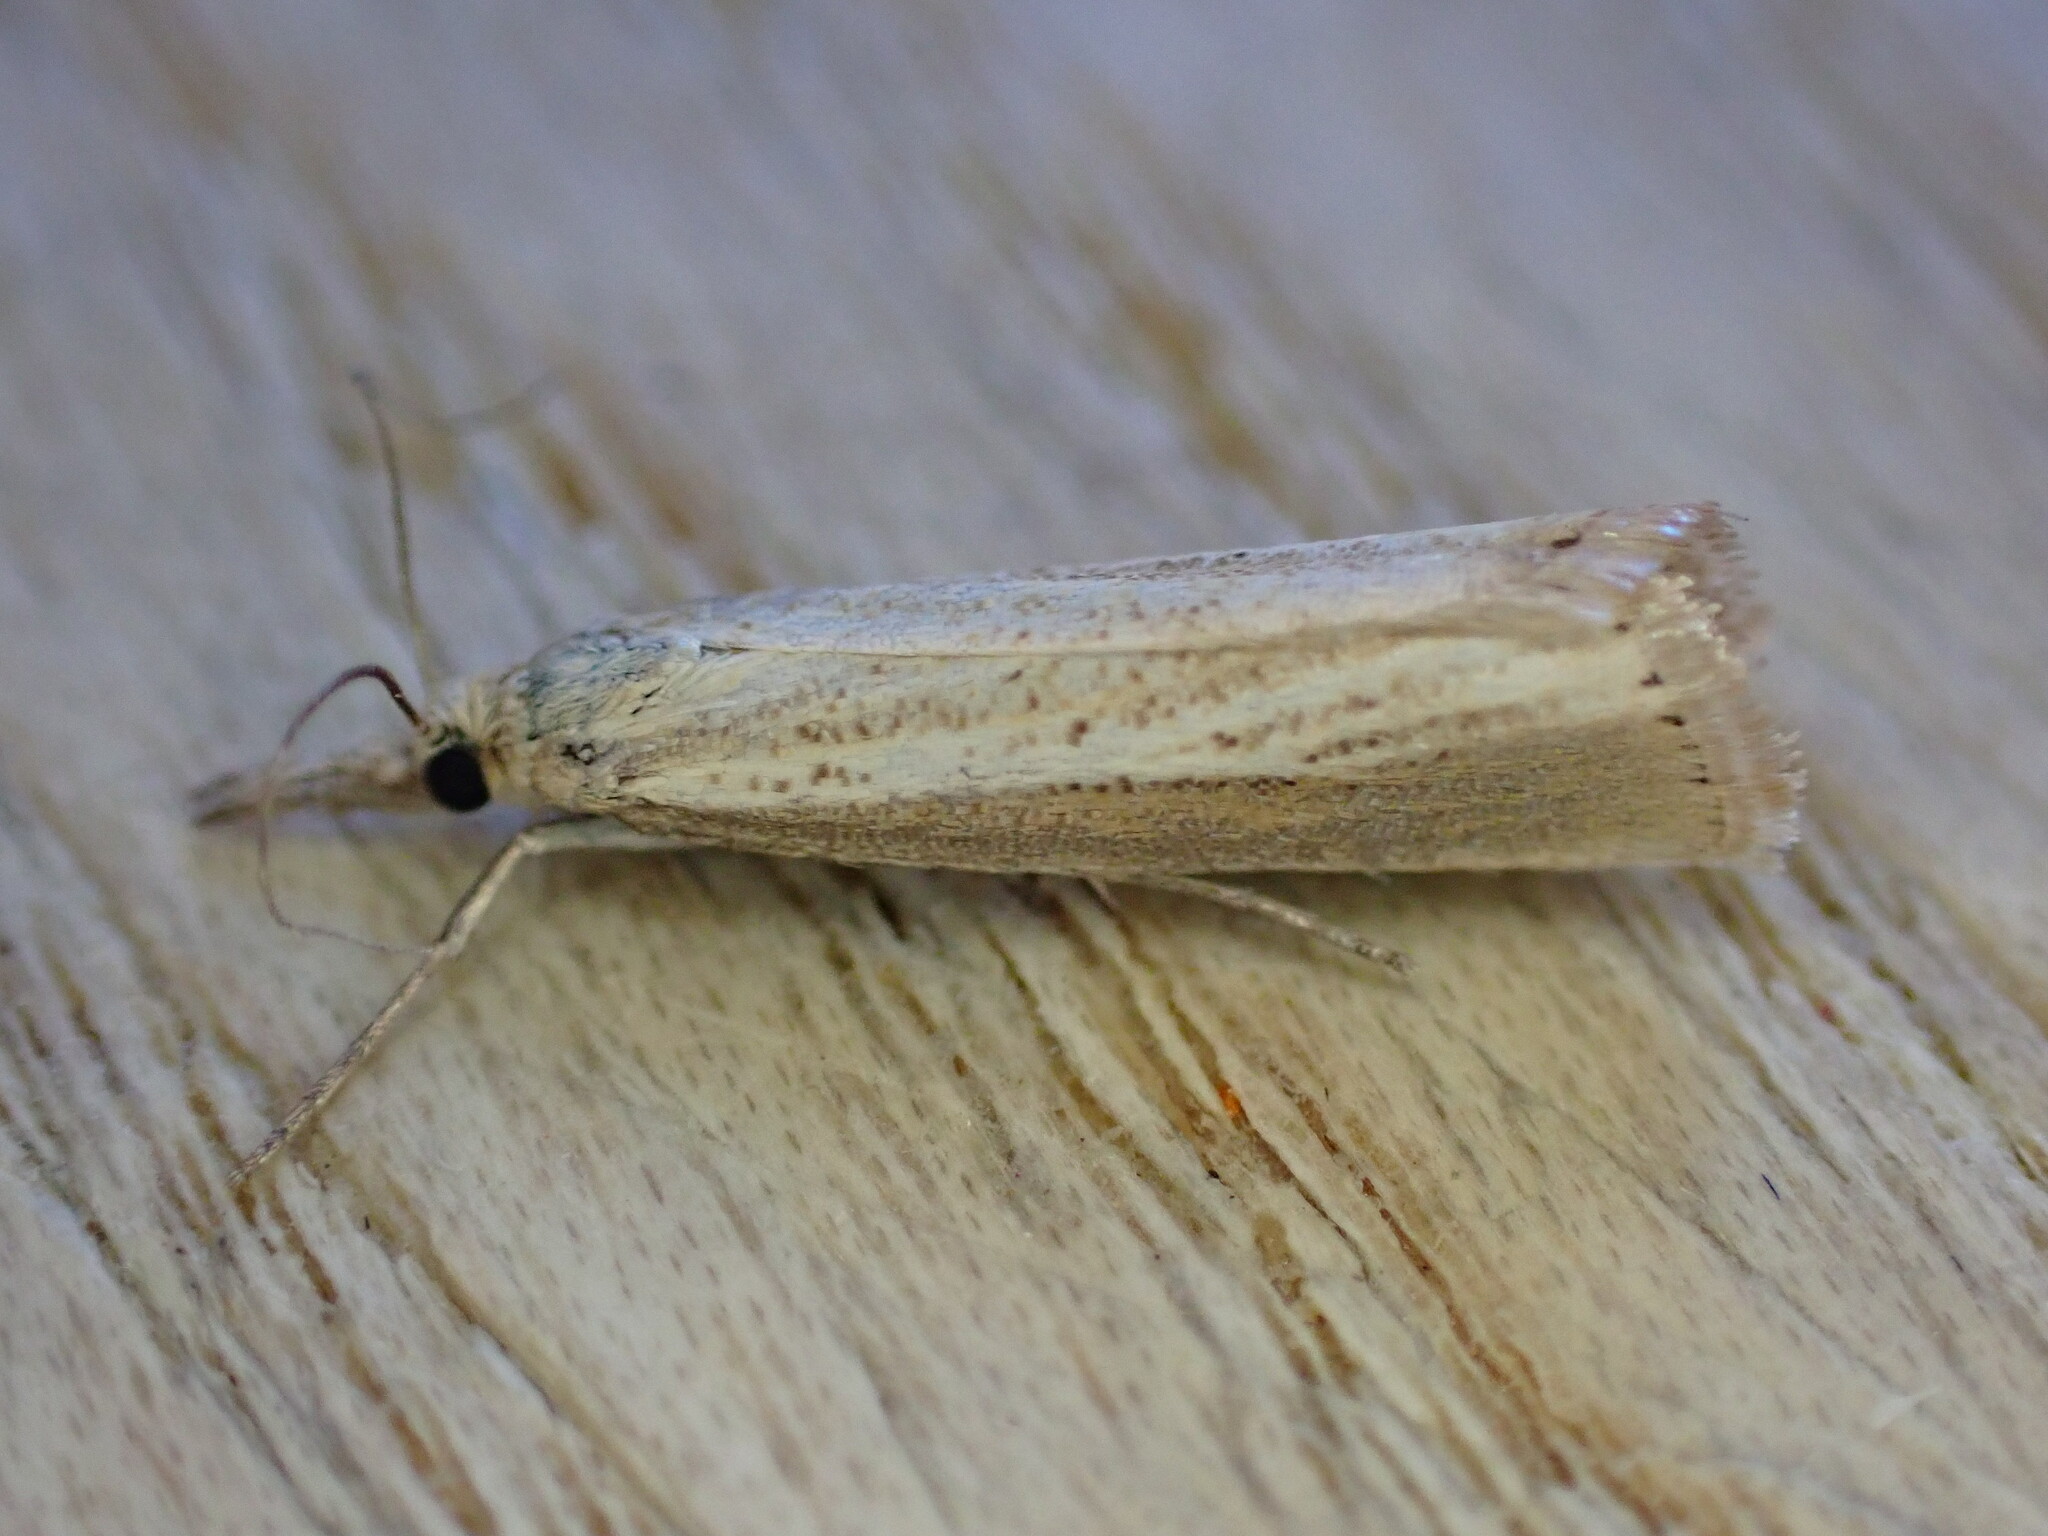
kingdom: Animalia
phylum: Arthropoda
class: Insecta
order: Lepidoptera
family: Crambidae
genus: Agriphila
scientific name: Agriphila straminella
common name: Straw grass-veneer
